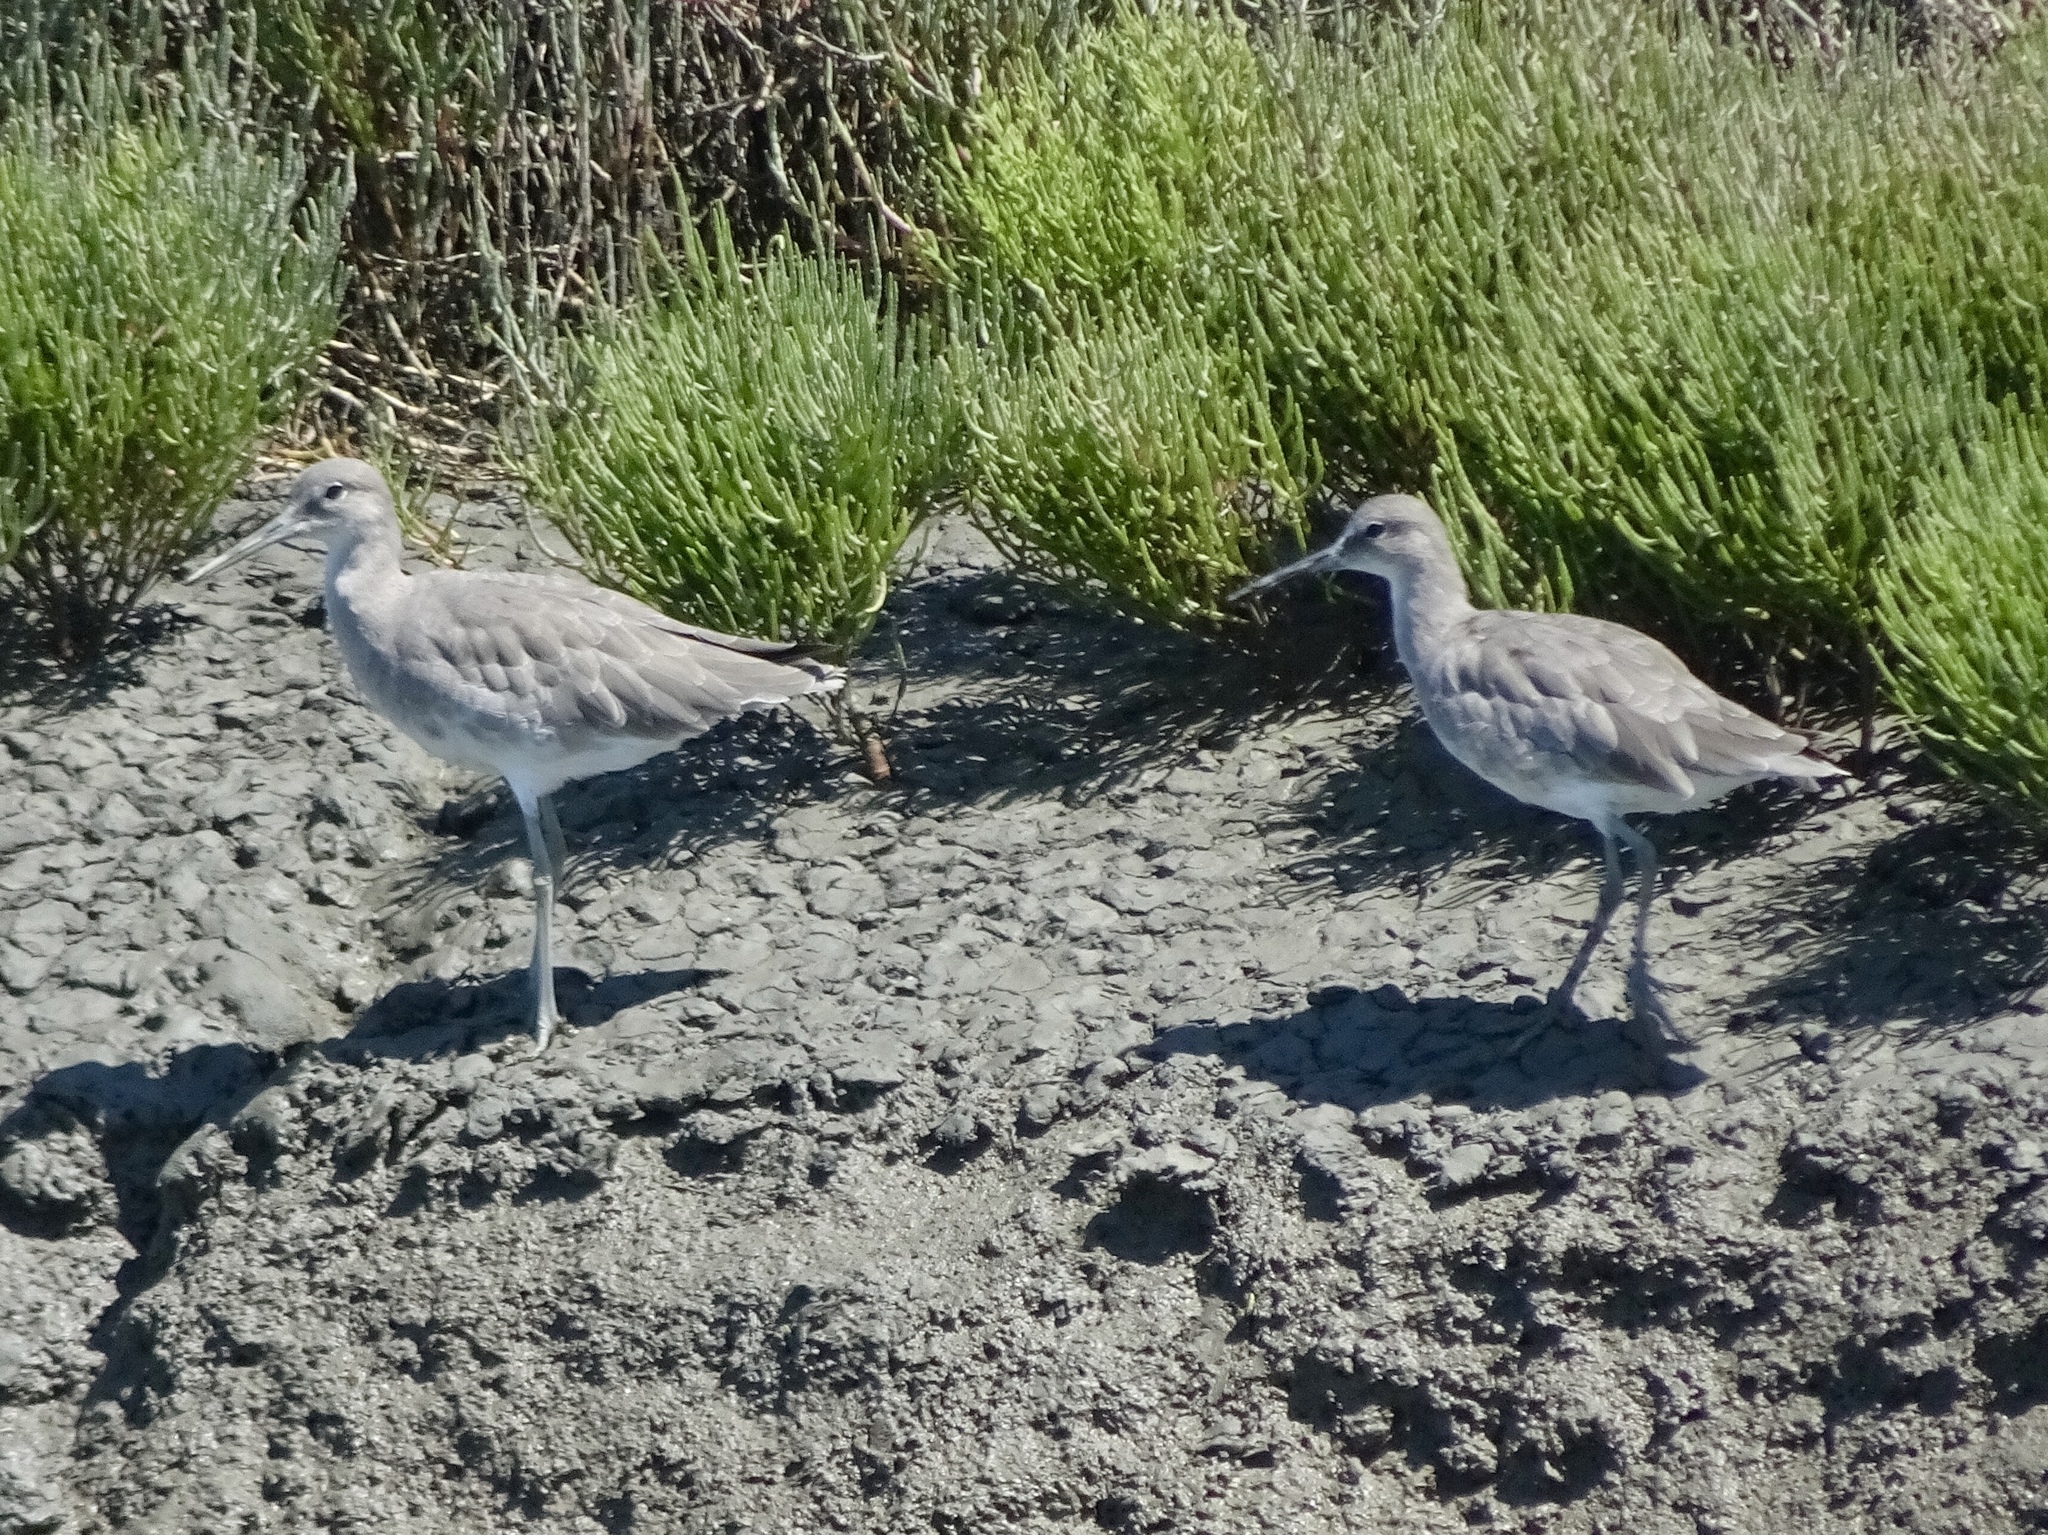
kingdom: Animalia
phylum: Chordata
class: Aves
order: Charadriiformes
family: Scolopacidae
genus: Tringa
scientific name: Tringa semipalmata
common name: Willet
